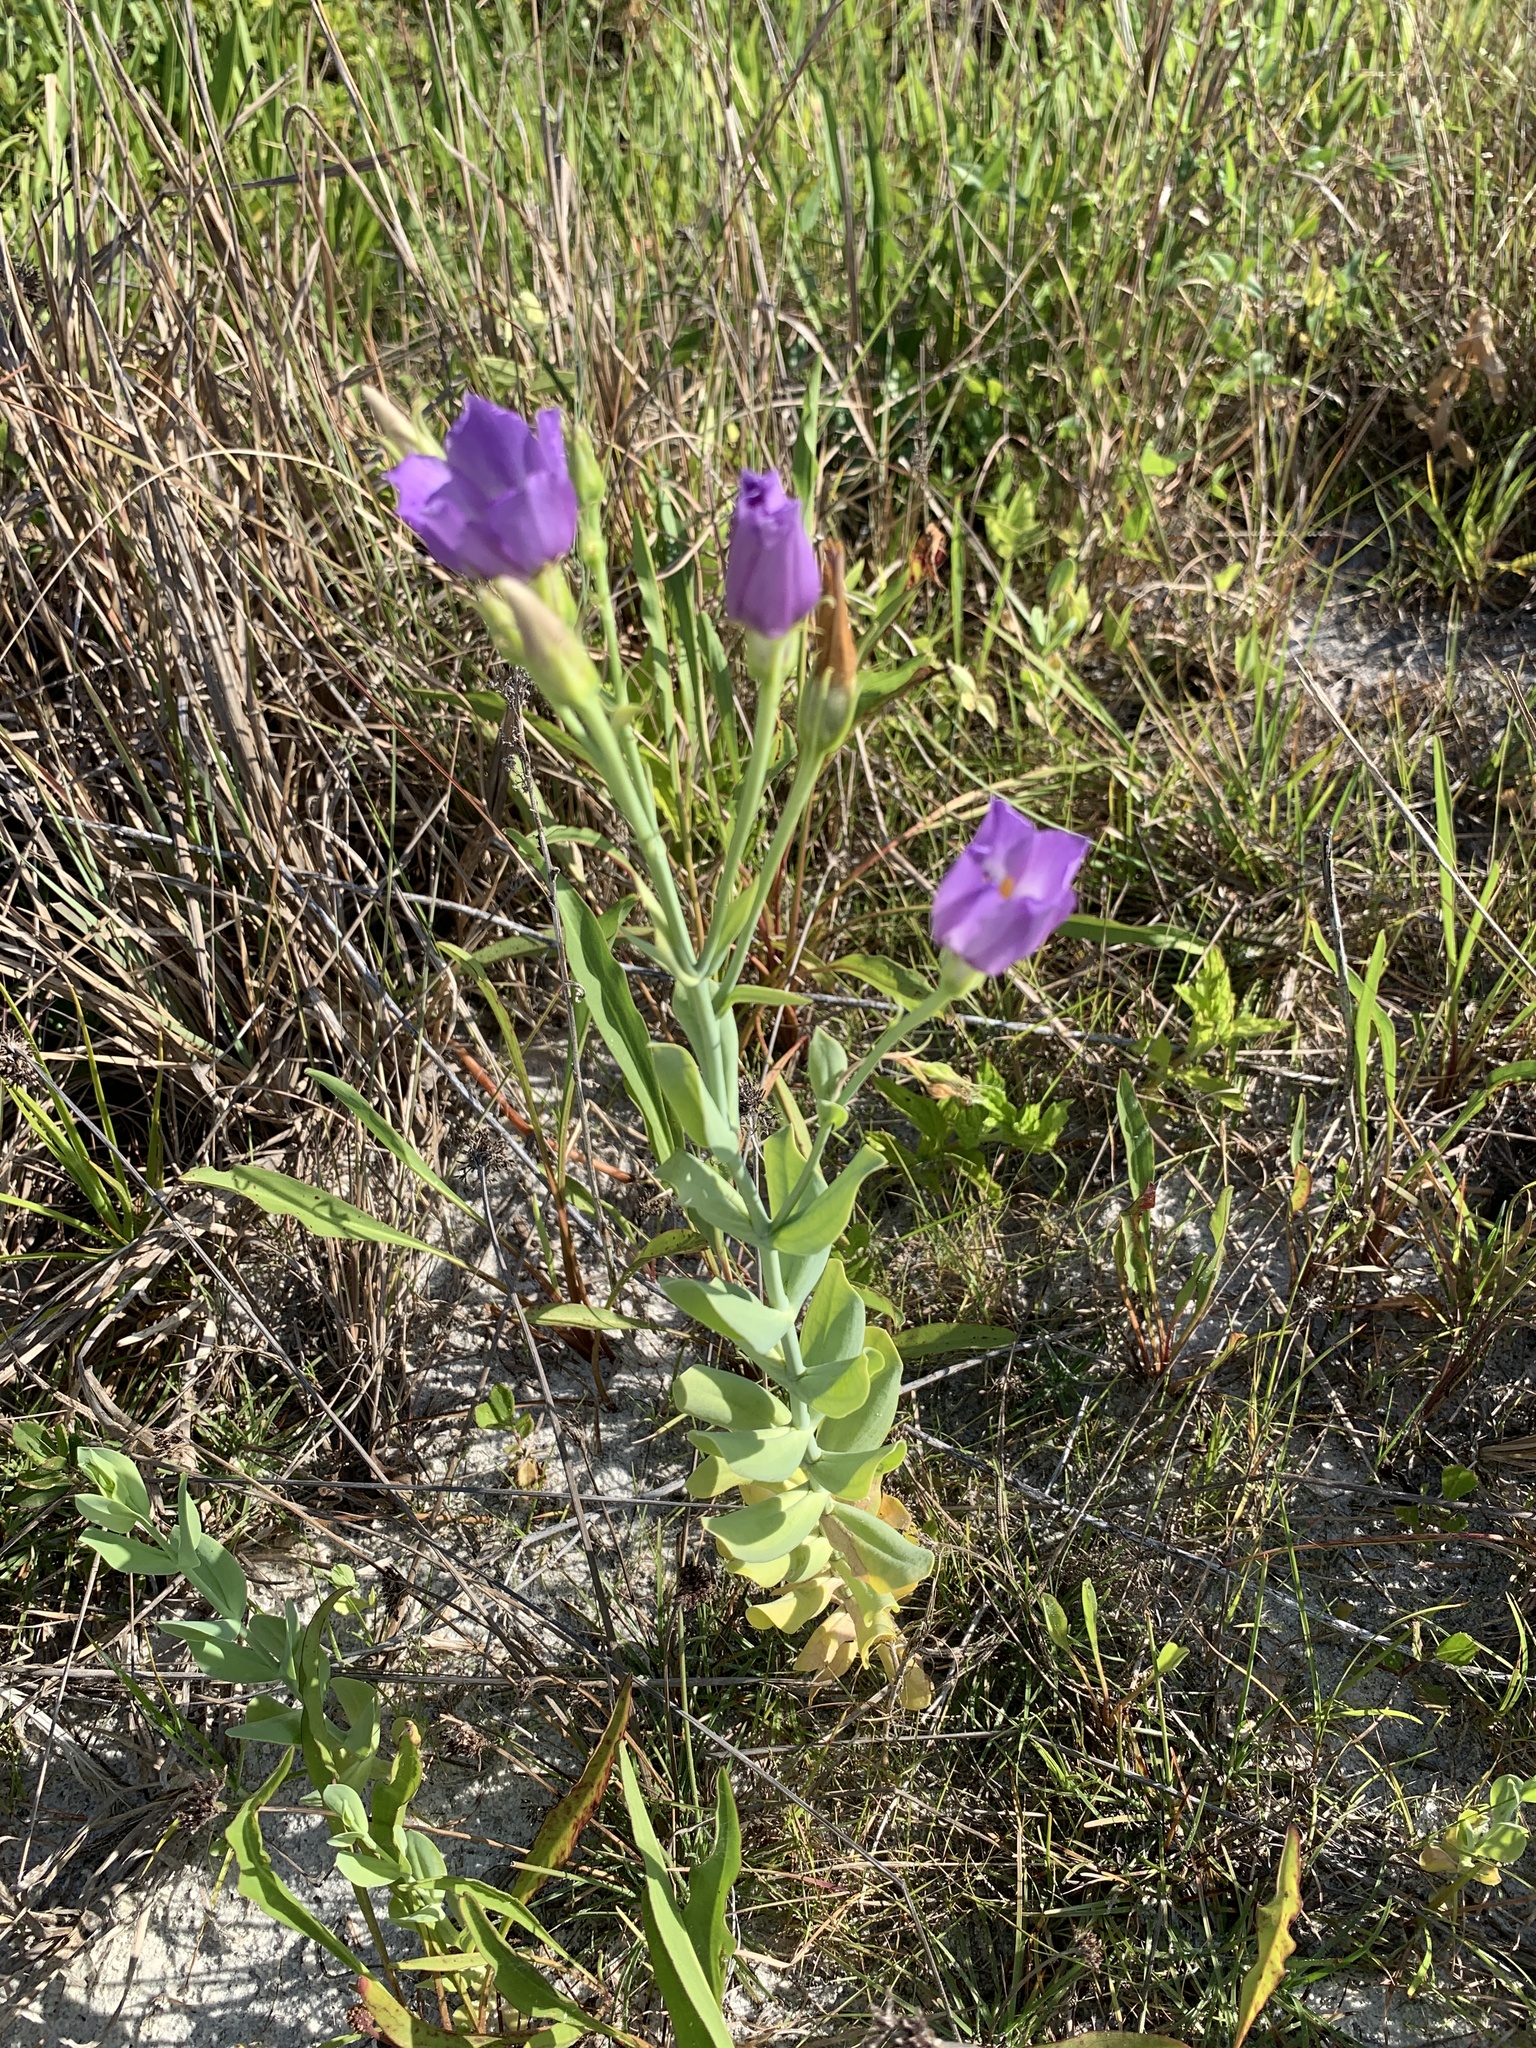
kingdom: Plantae
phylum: Tracheophyta
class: Magnoliopsida
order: Gentianales
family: Gentianaceae
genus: Eustoma
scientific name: Eustoma exaltatum
